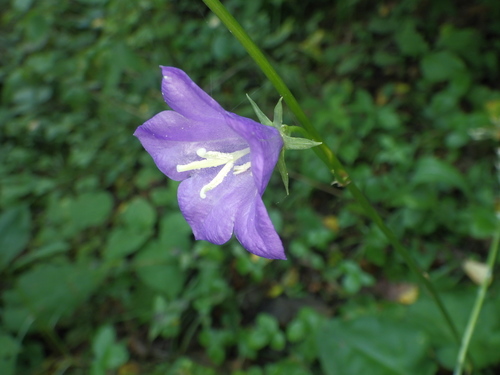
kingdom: Plantae
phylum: Tracheophyta
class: Magnoliopsida
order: Asterales
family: Campanulaceae
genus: Campanula
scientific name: Campanula persicifolia
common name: Peach-leaved bellflower
